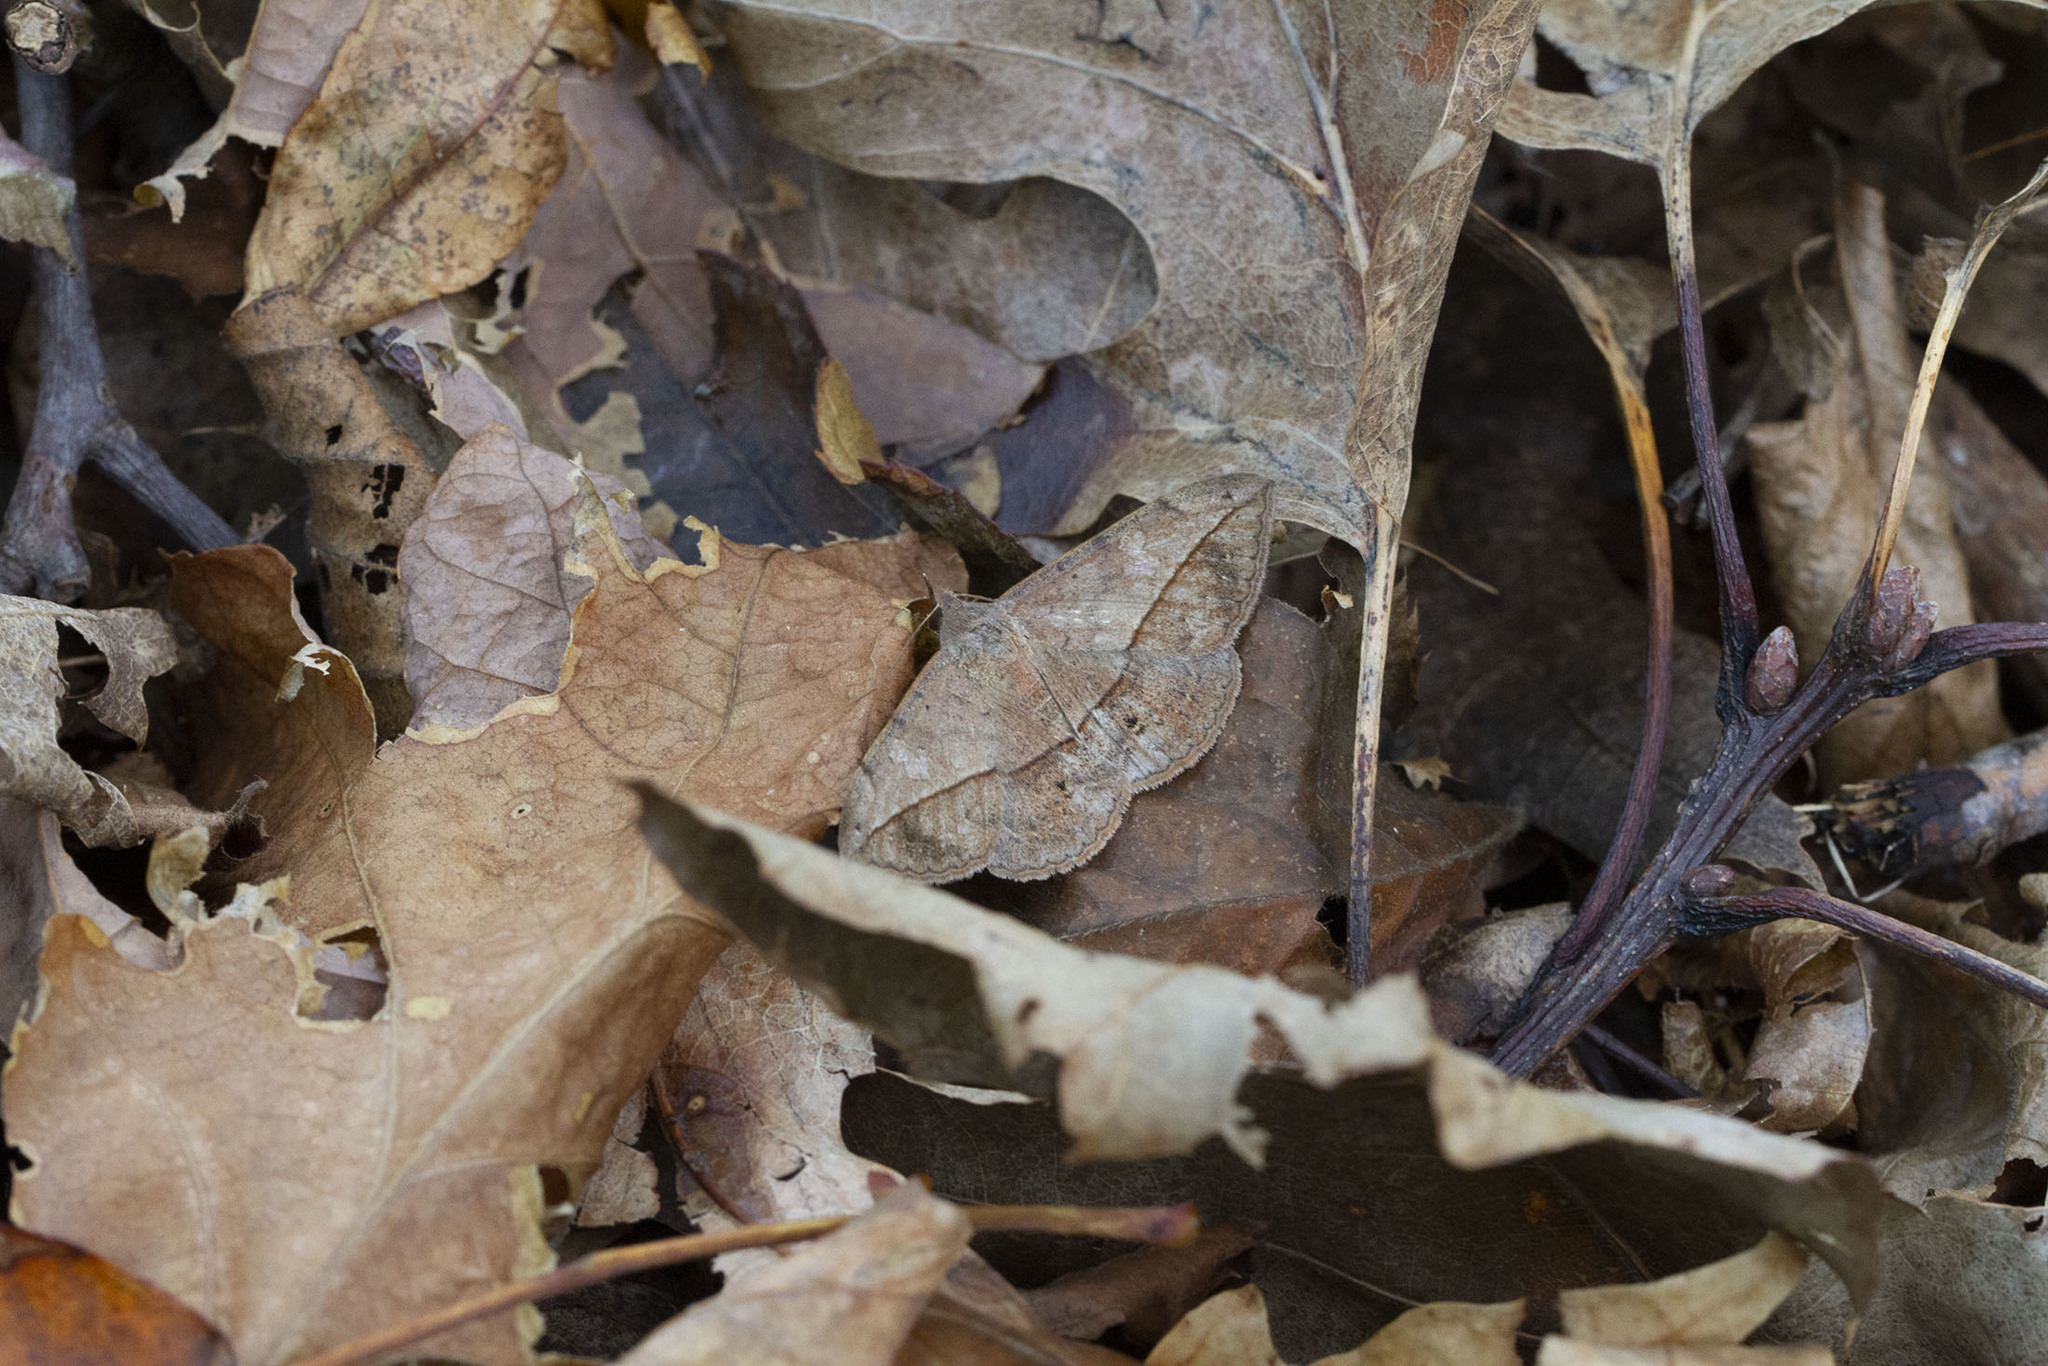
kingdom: Animalia
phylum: Arthropoda
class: Insecta
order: Lepidoptera
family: Erebidae
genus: Anticarsia
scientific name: Anticarsia gemmatalis
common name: Cutworm moth
